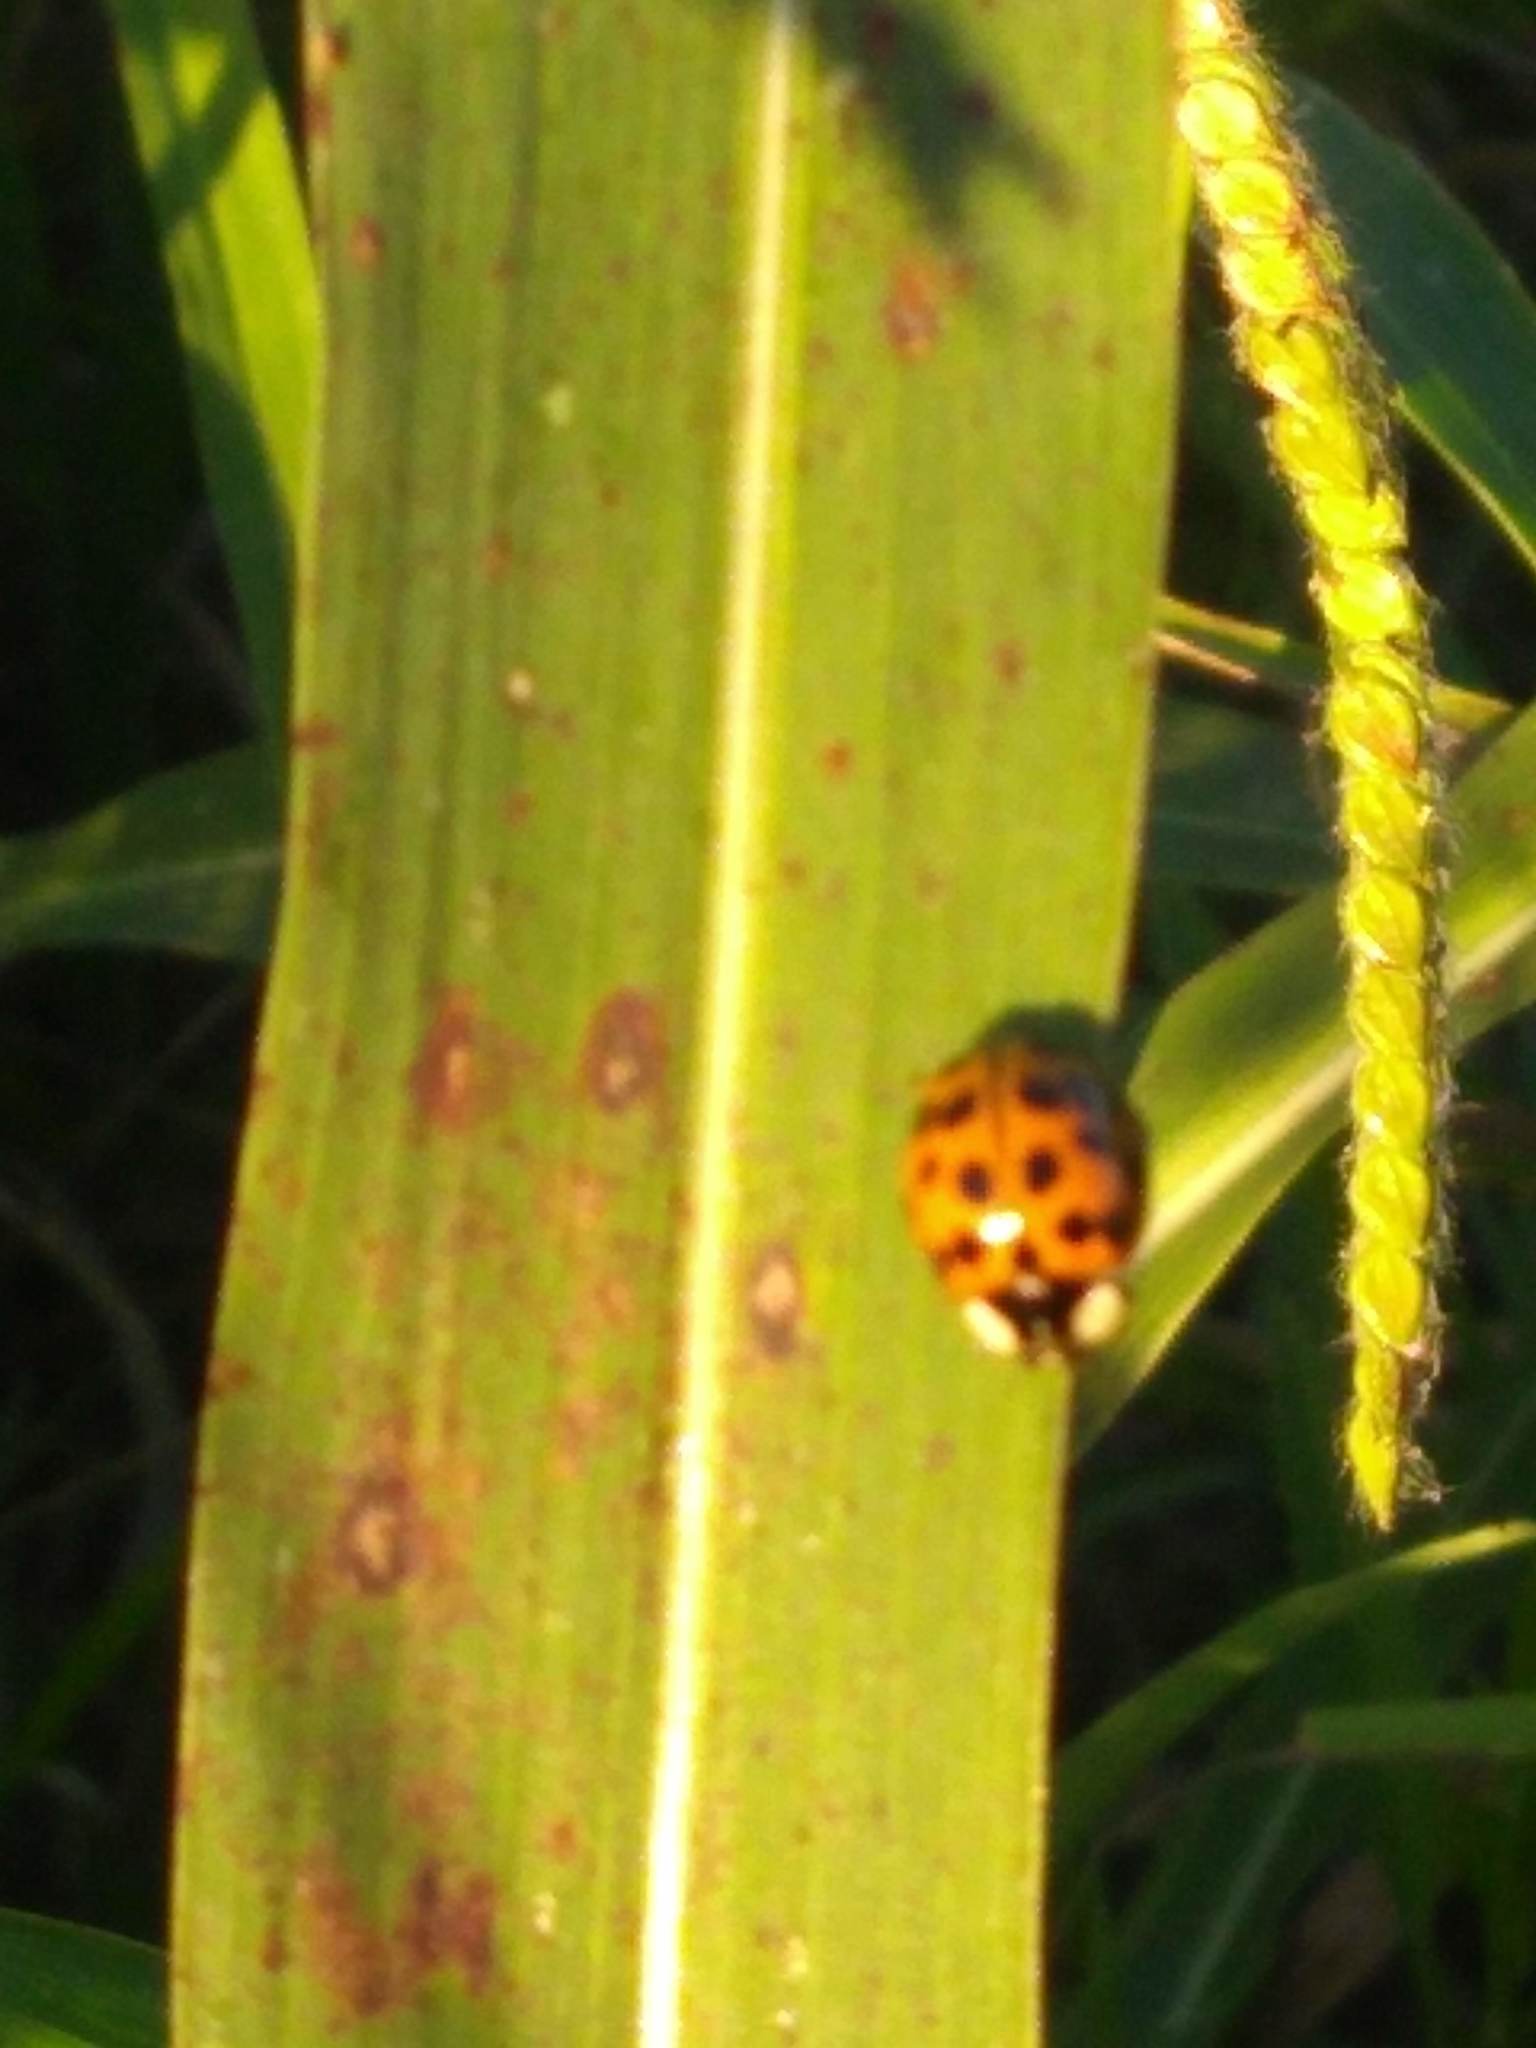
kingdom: Animalia
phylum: Arthropoda
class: Insecta
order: Coleoptera
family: Coccinellidae
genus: Harmonia
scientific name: Harmonia axyridis
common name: Harlequin ladybird
